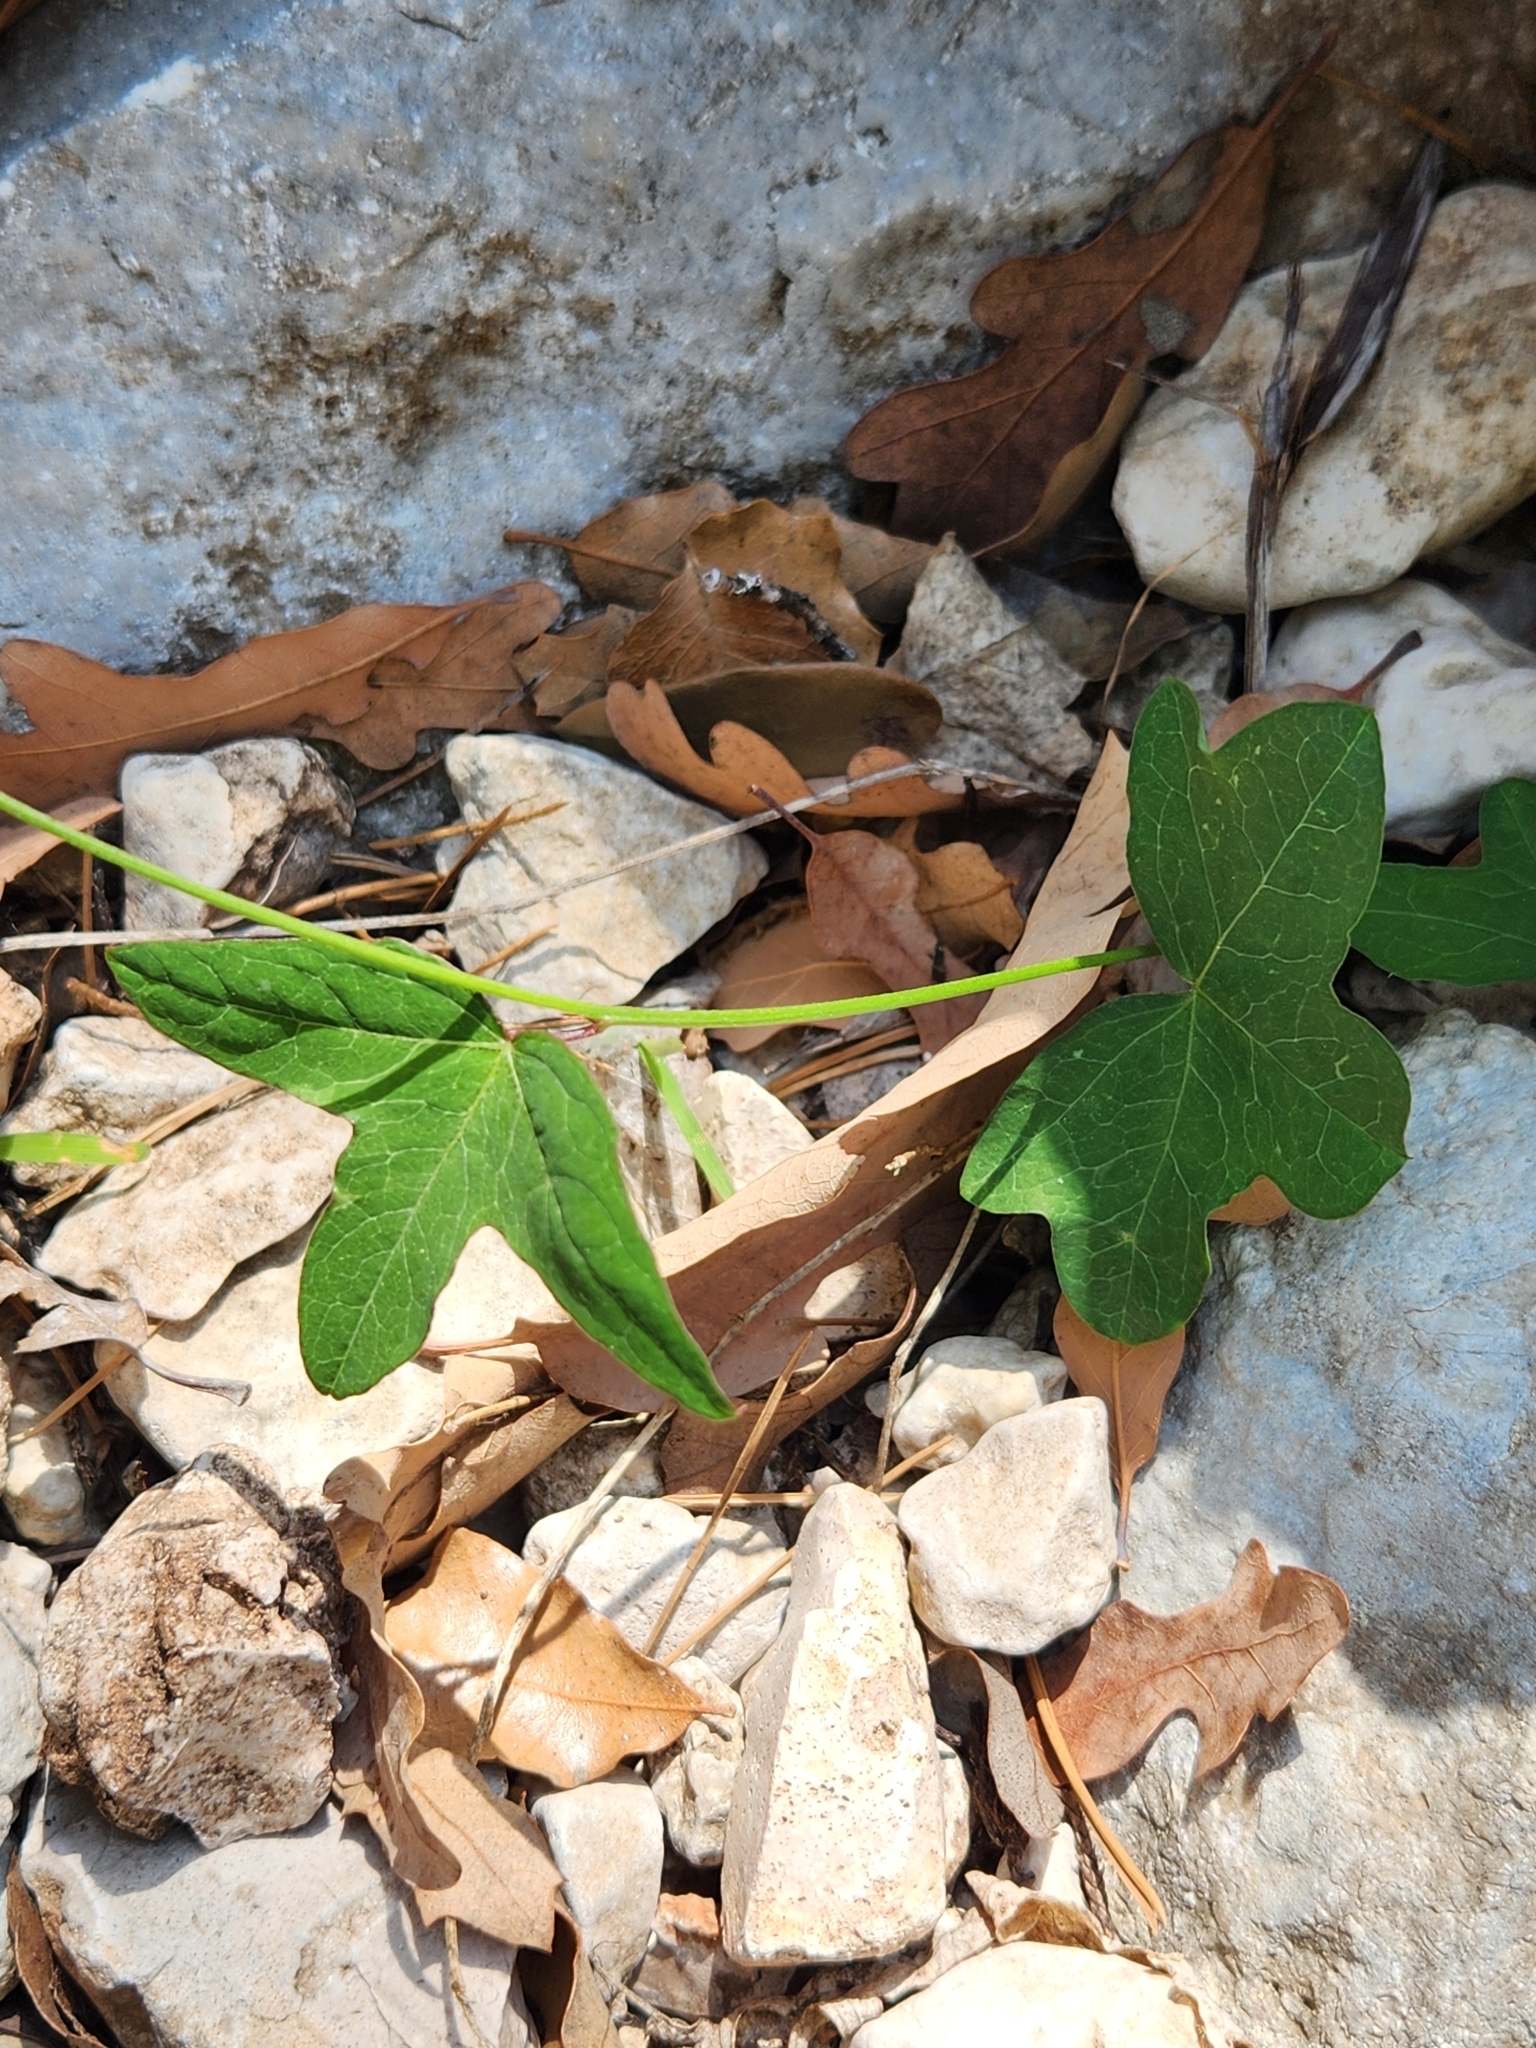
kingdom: Plantae
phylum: Tracheophyta
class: Magnoliopsida
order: Malpighiales
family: Passifloraceae
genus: Passiflora
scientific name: Passiflora tenuiloba
